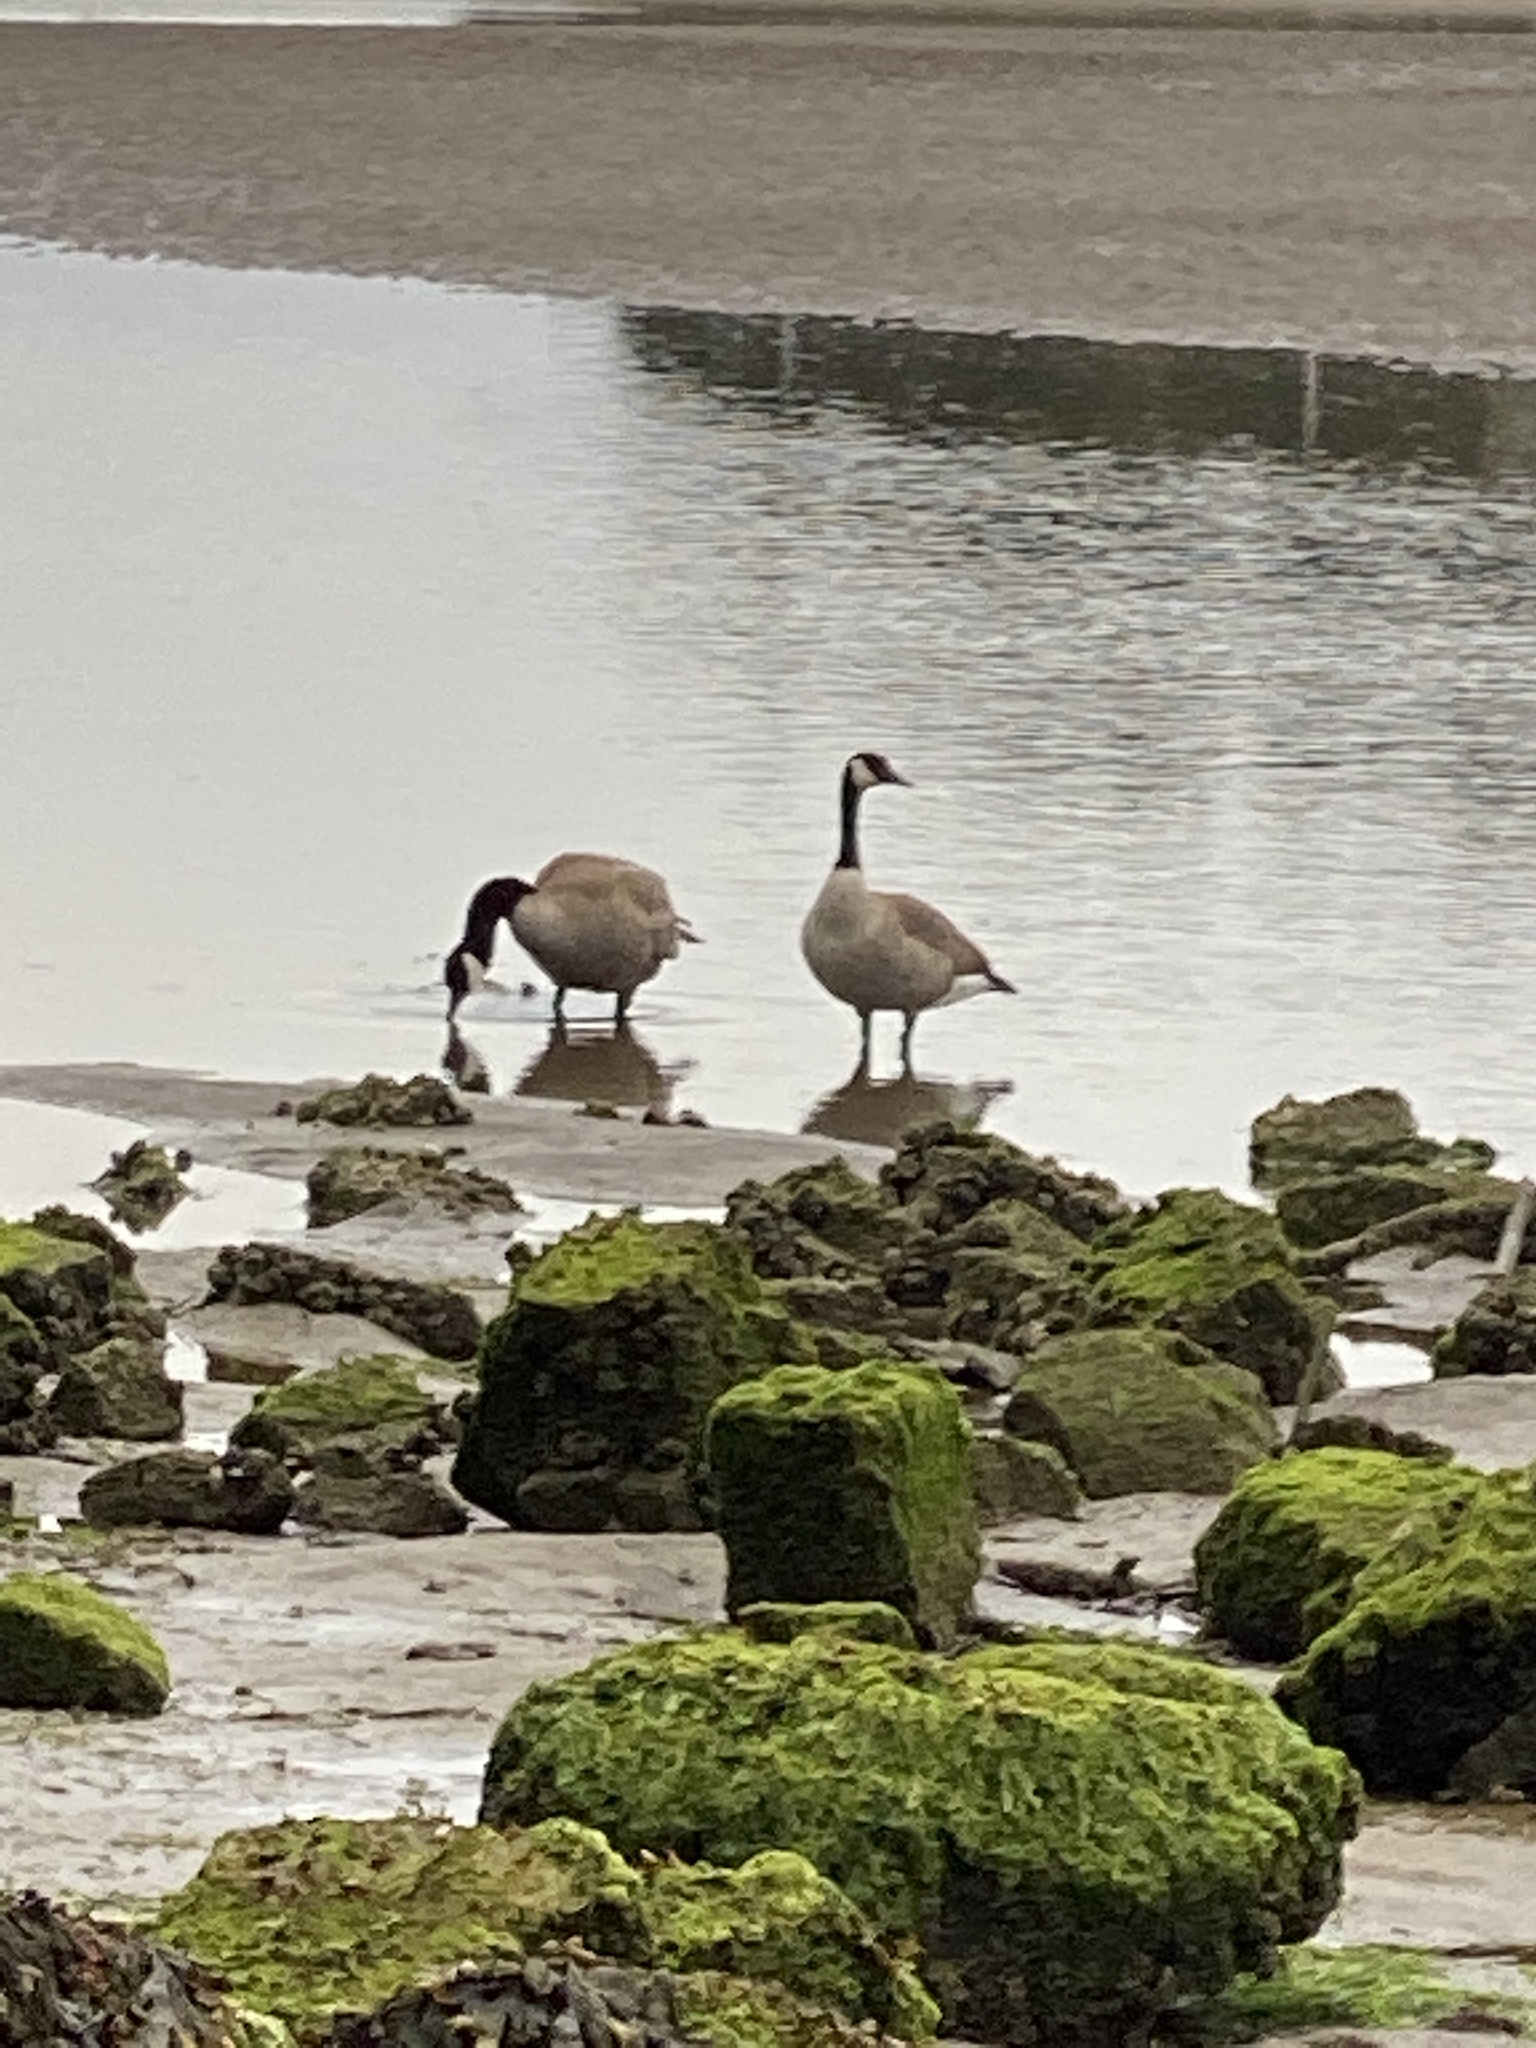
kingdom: Animalia
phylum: Chordata
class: Aves
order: Anseriformes
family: Anatidae
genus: Branta
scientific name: Branta canadensis
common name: Canada goose
